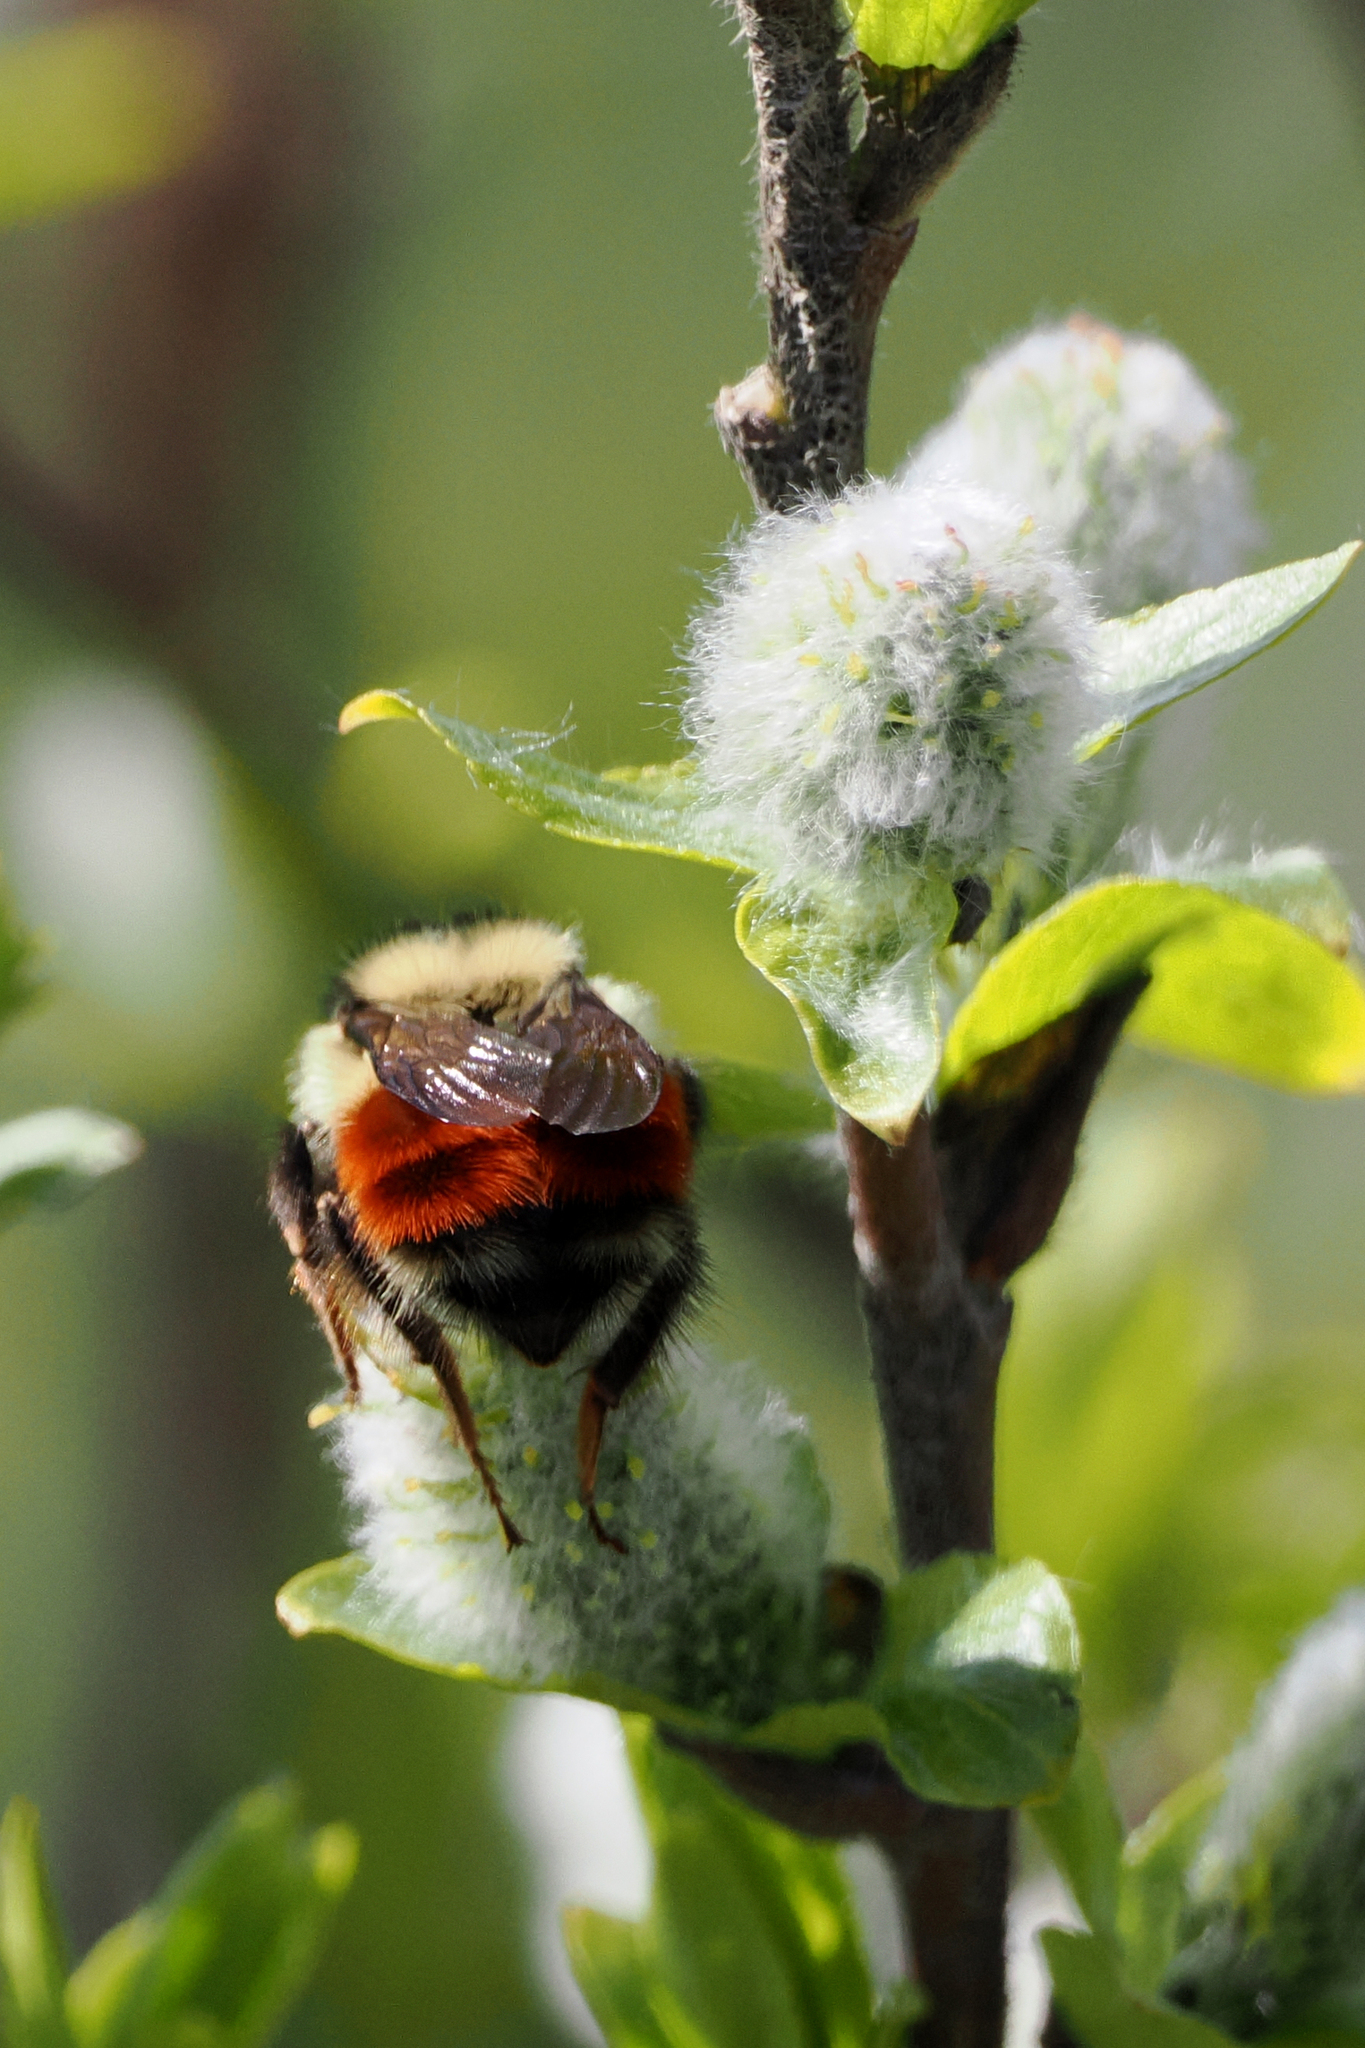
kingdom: Animalia
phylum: Arthropoda
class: Insecta
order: Hymenoptera
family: Apidae
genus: Bombus
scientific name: Bombus mixtus
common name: Fuzzy-horned bumble bee
